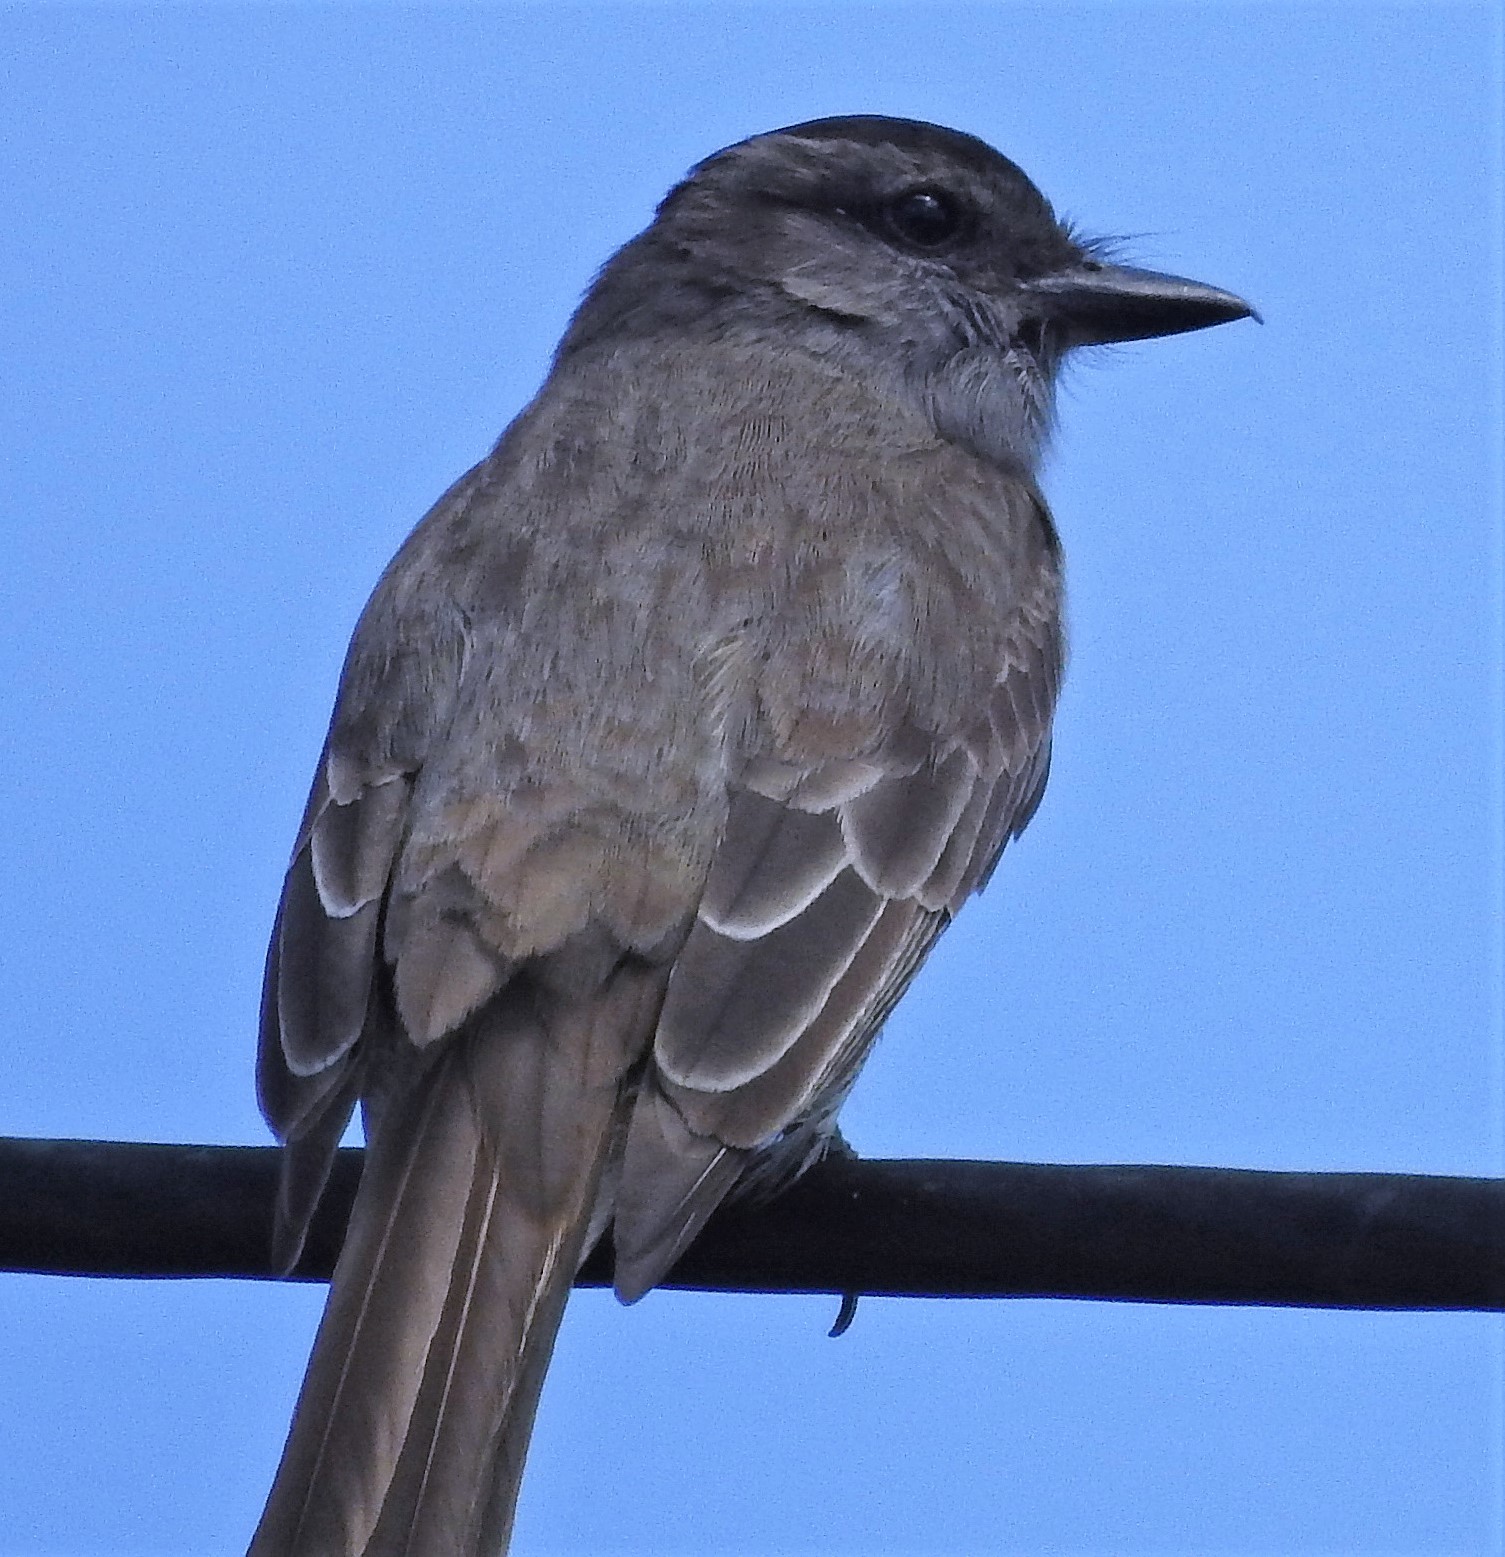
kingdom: Animalia
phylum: Chordata
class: Aves
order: Passeriformes
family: Tyrannidae
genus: Empidonomus
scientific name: Empidonomus aurantioatrocristatus
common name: Crowned slaty flycatcher
